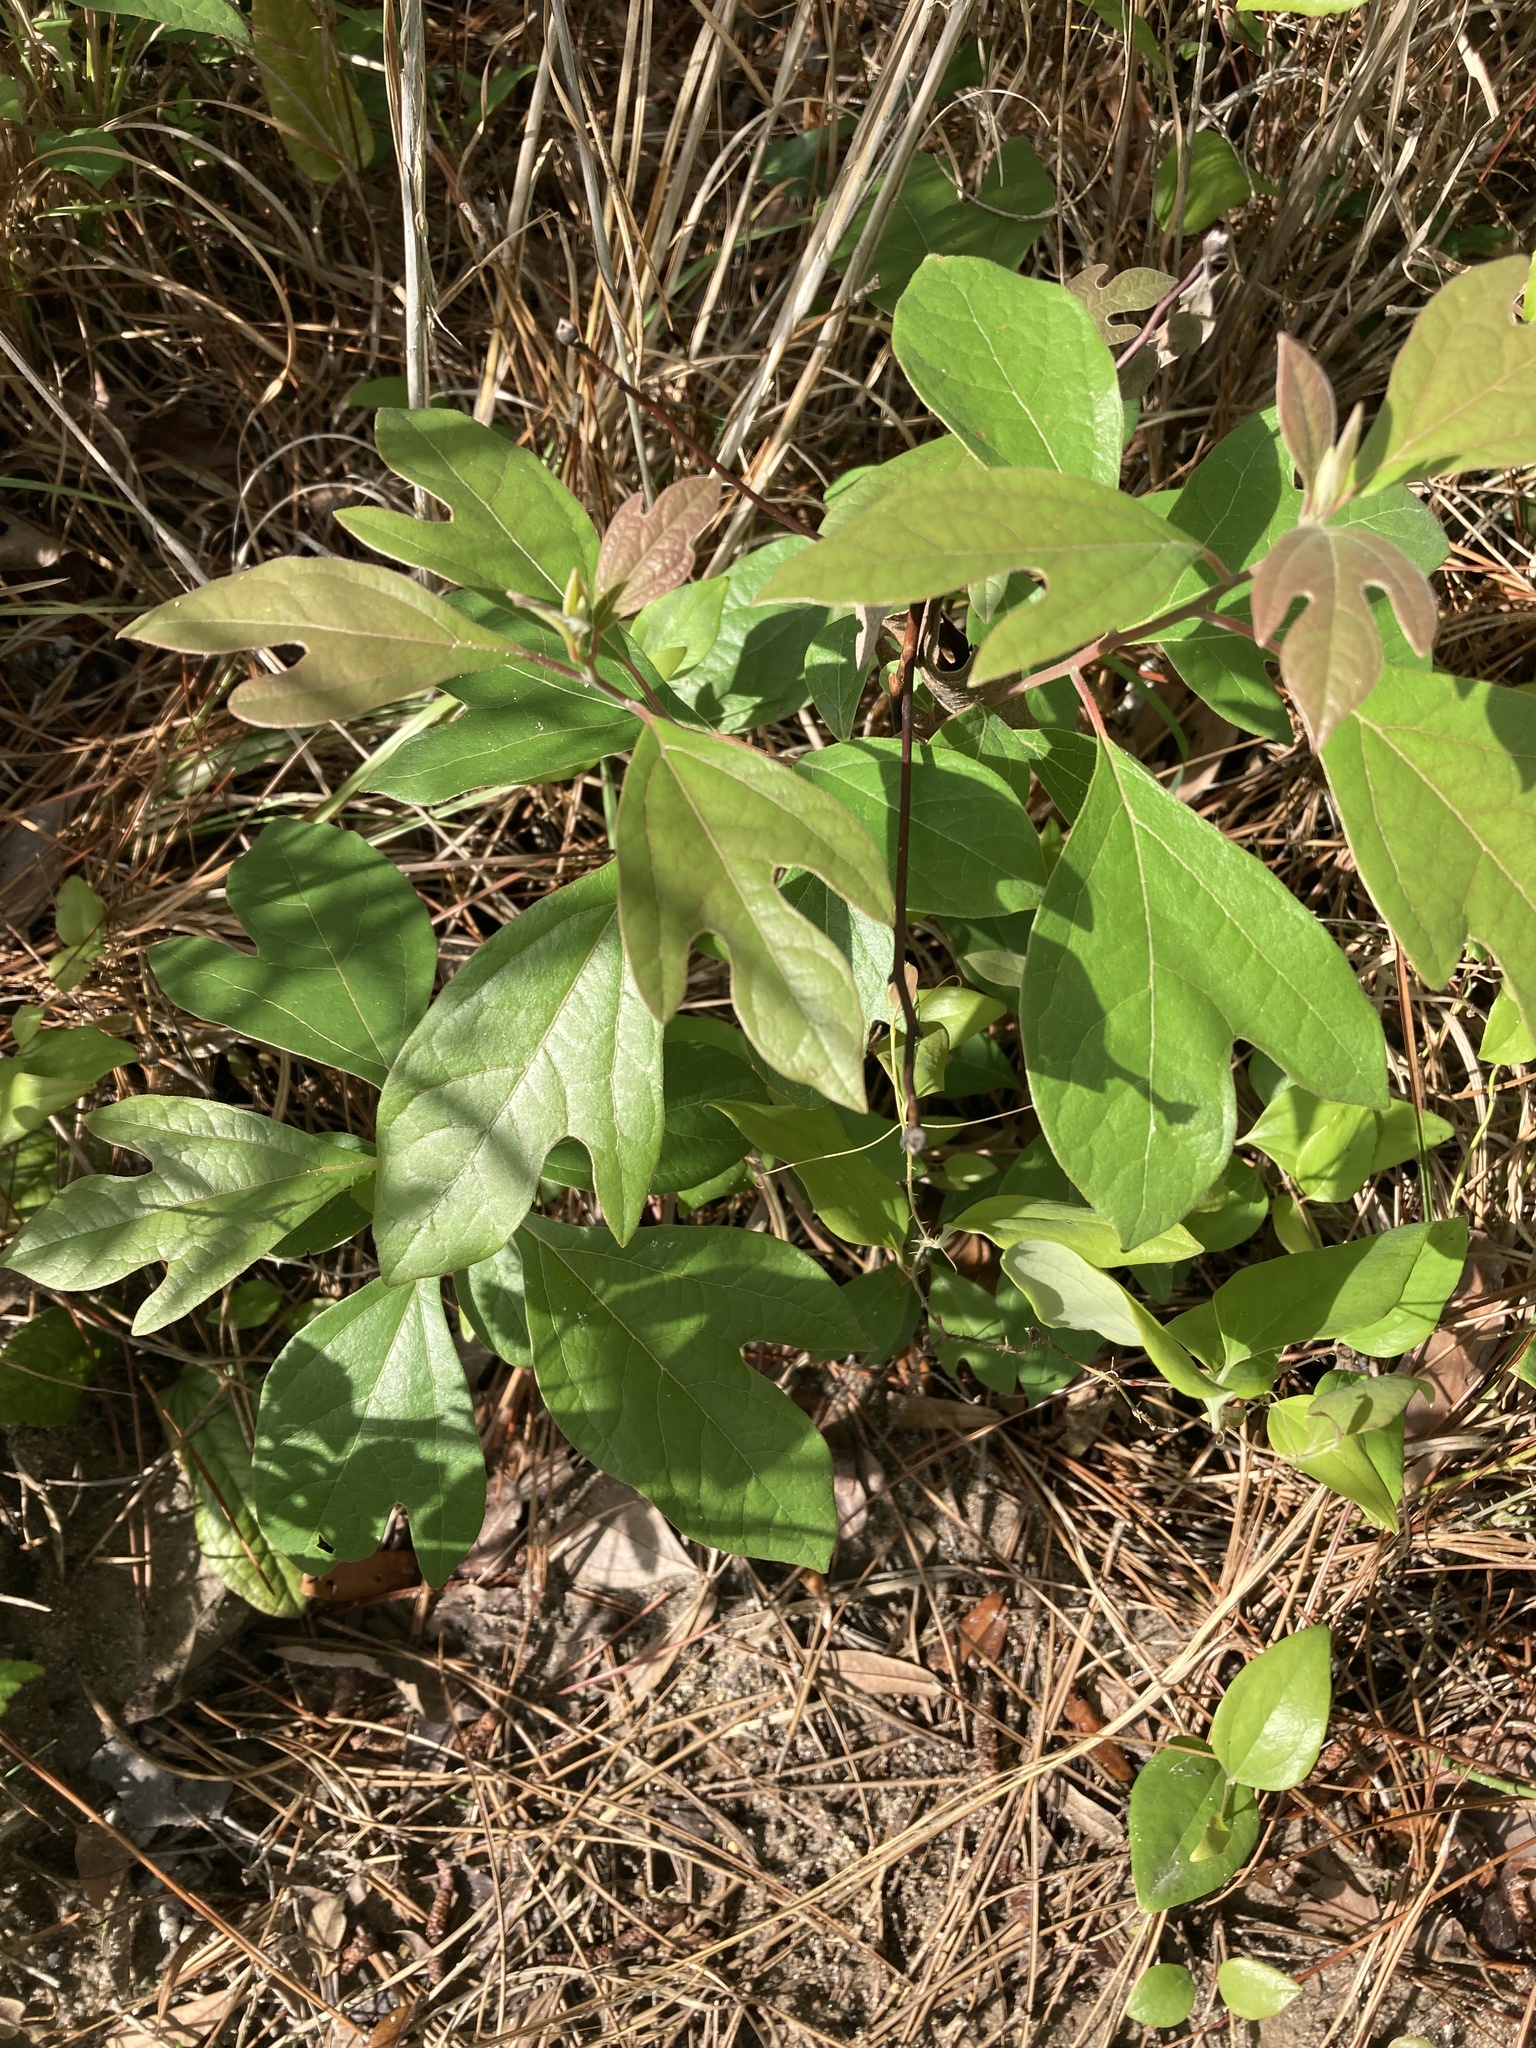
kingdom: Plantae
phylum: Tracheophyta
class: Magnoliopsida
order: Laurales
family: Lauraceae
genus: Sassafras
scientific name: Sassafras albidum
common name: Sassafras
